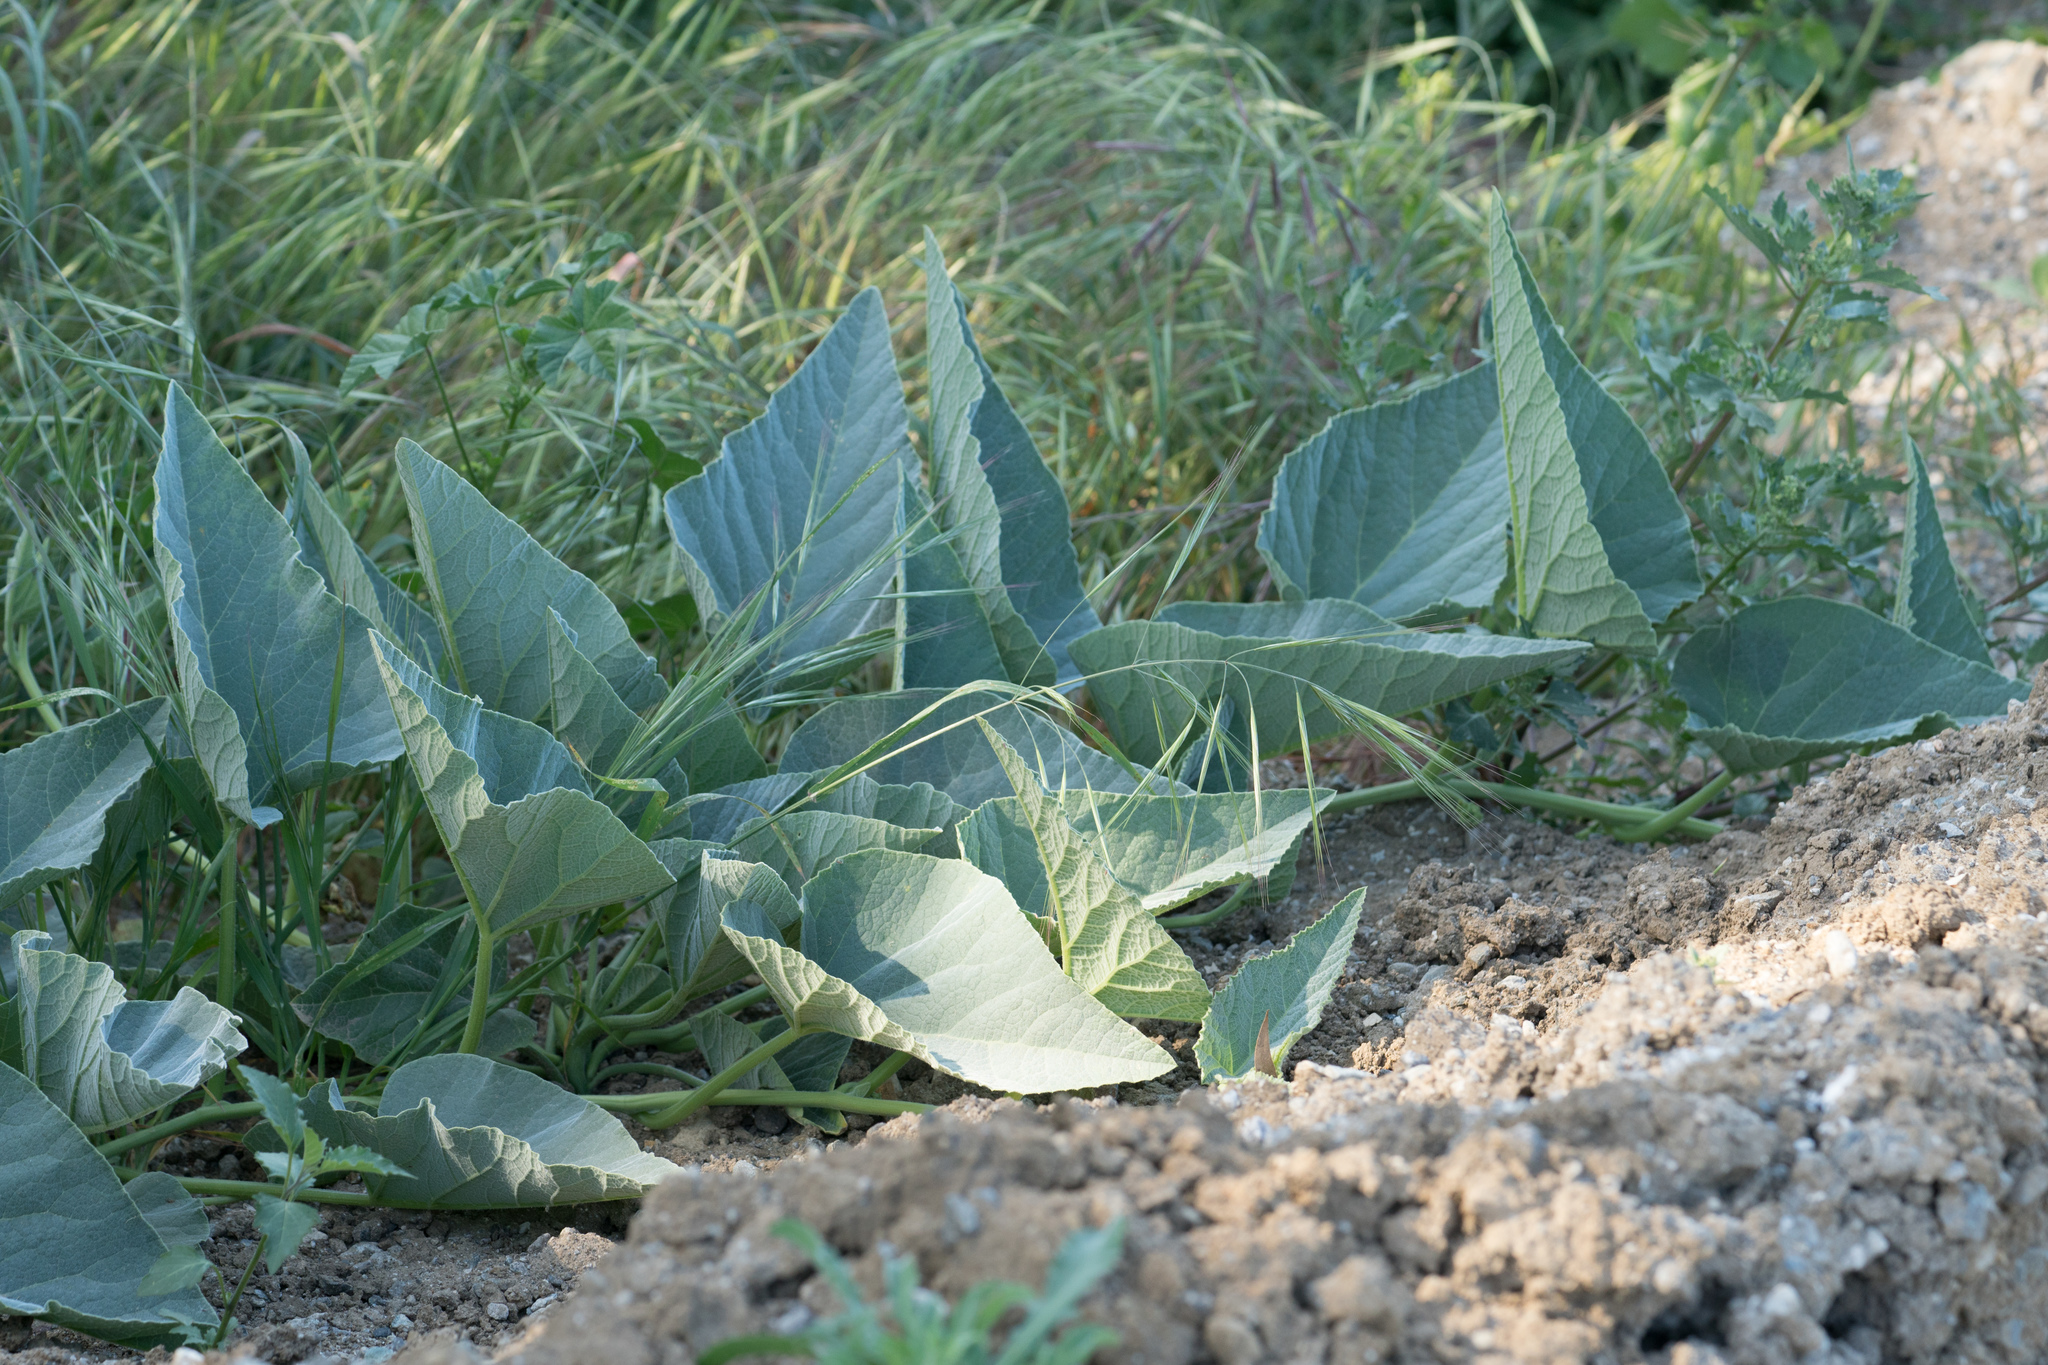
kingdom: Plantae
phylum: Tracheophyta
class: Magnoliopsida
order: Cucurbitales
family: Cucurbitaceae
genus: Cucurbita
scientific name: Cucurbita foetidissima
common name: Buffalo gourd
